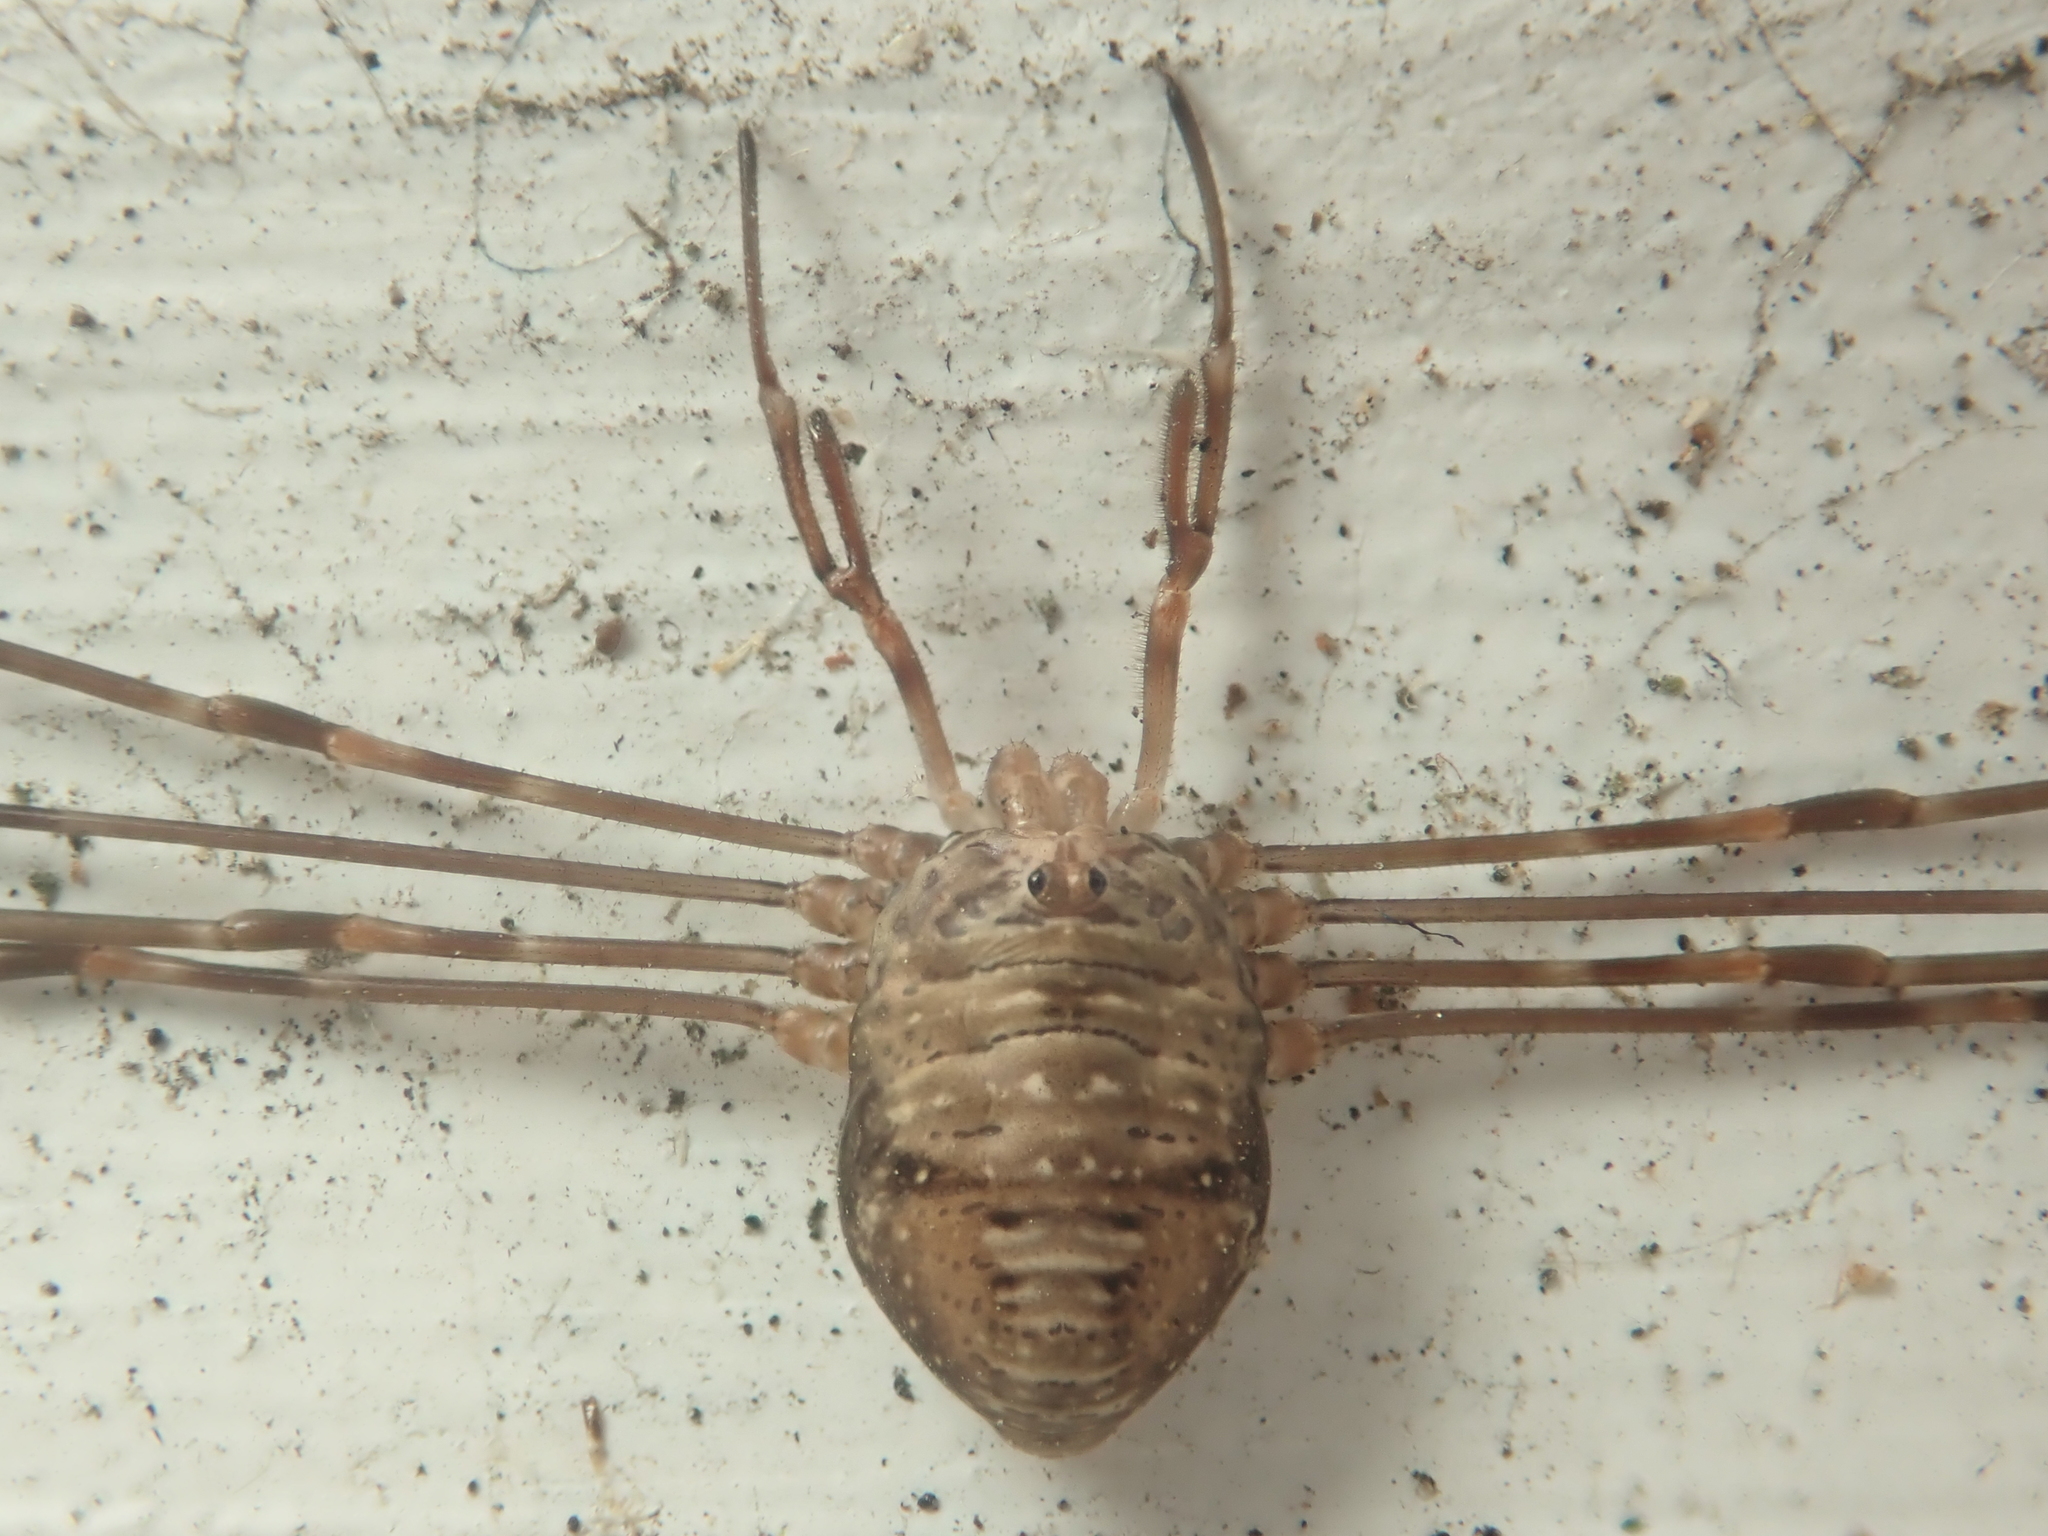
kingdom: Animalia
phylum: Arthropoda
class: Arachnida
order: Opiliones
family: Phalangiidae
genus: Dicranopalpus
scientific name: Dicranopalpus ramosus
